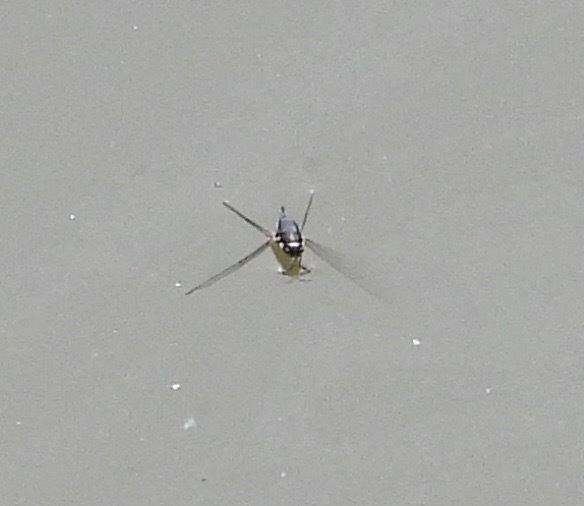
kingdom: Animalia
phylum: Arthropoda
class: Insecta
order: Hemiptera
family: Gerridae
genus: Rheumatobates
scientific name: Rheumatobates
